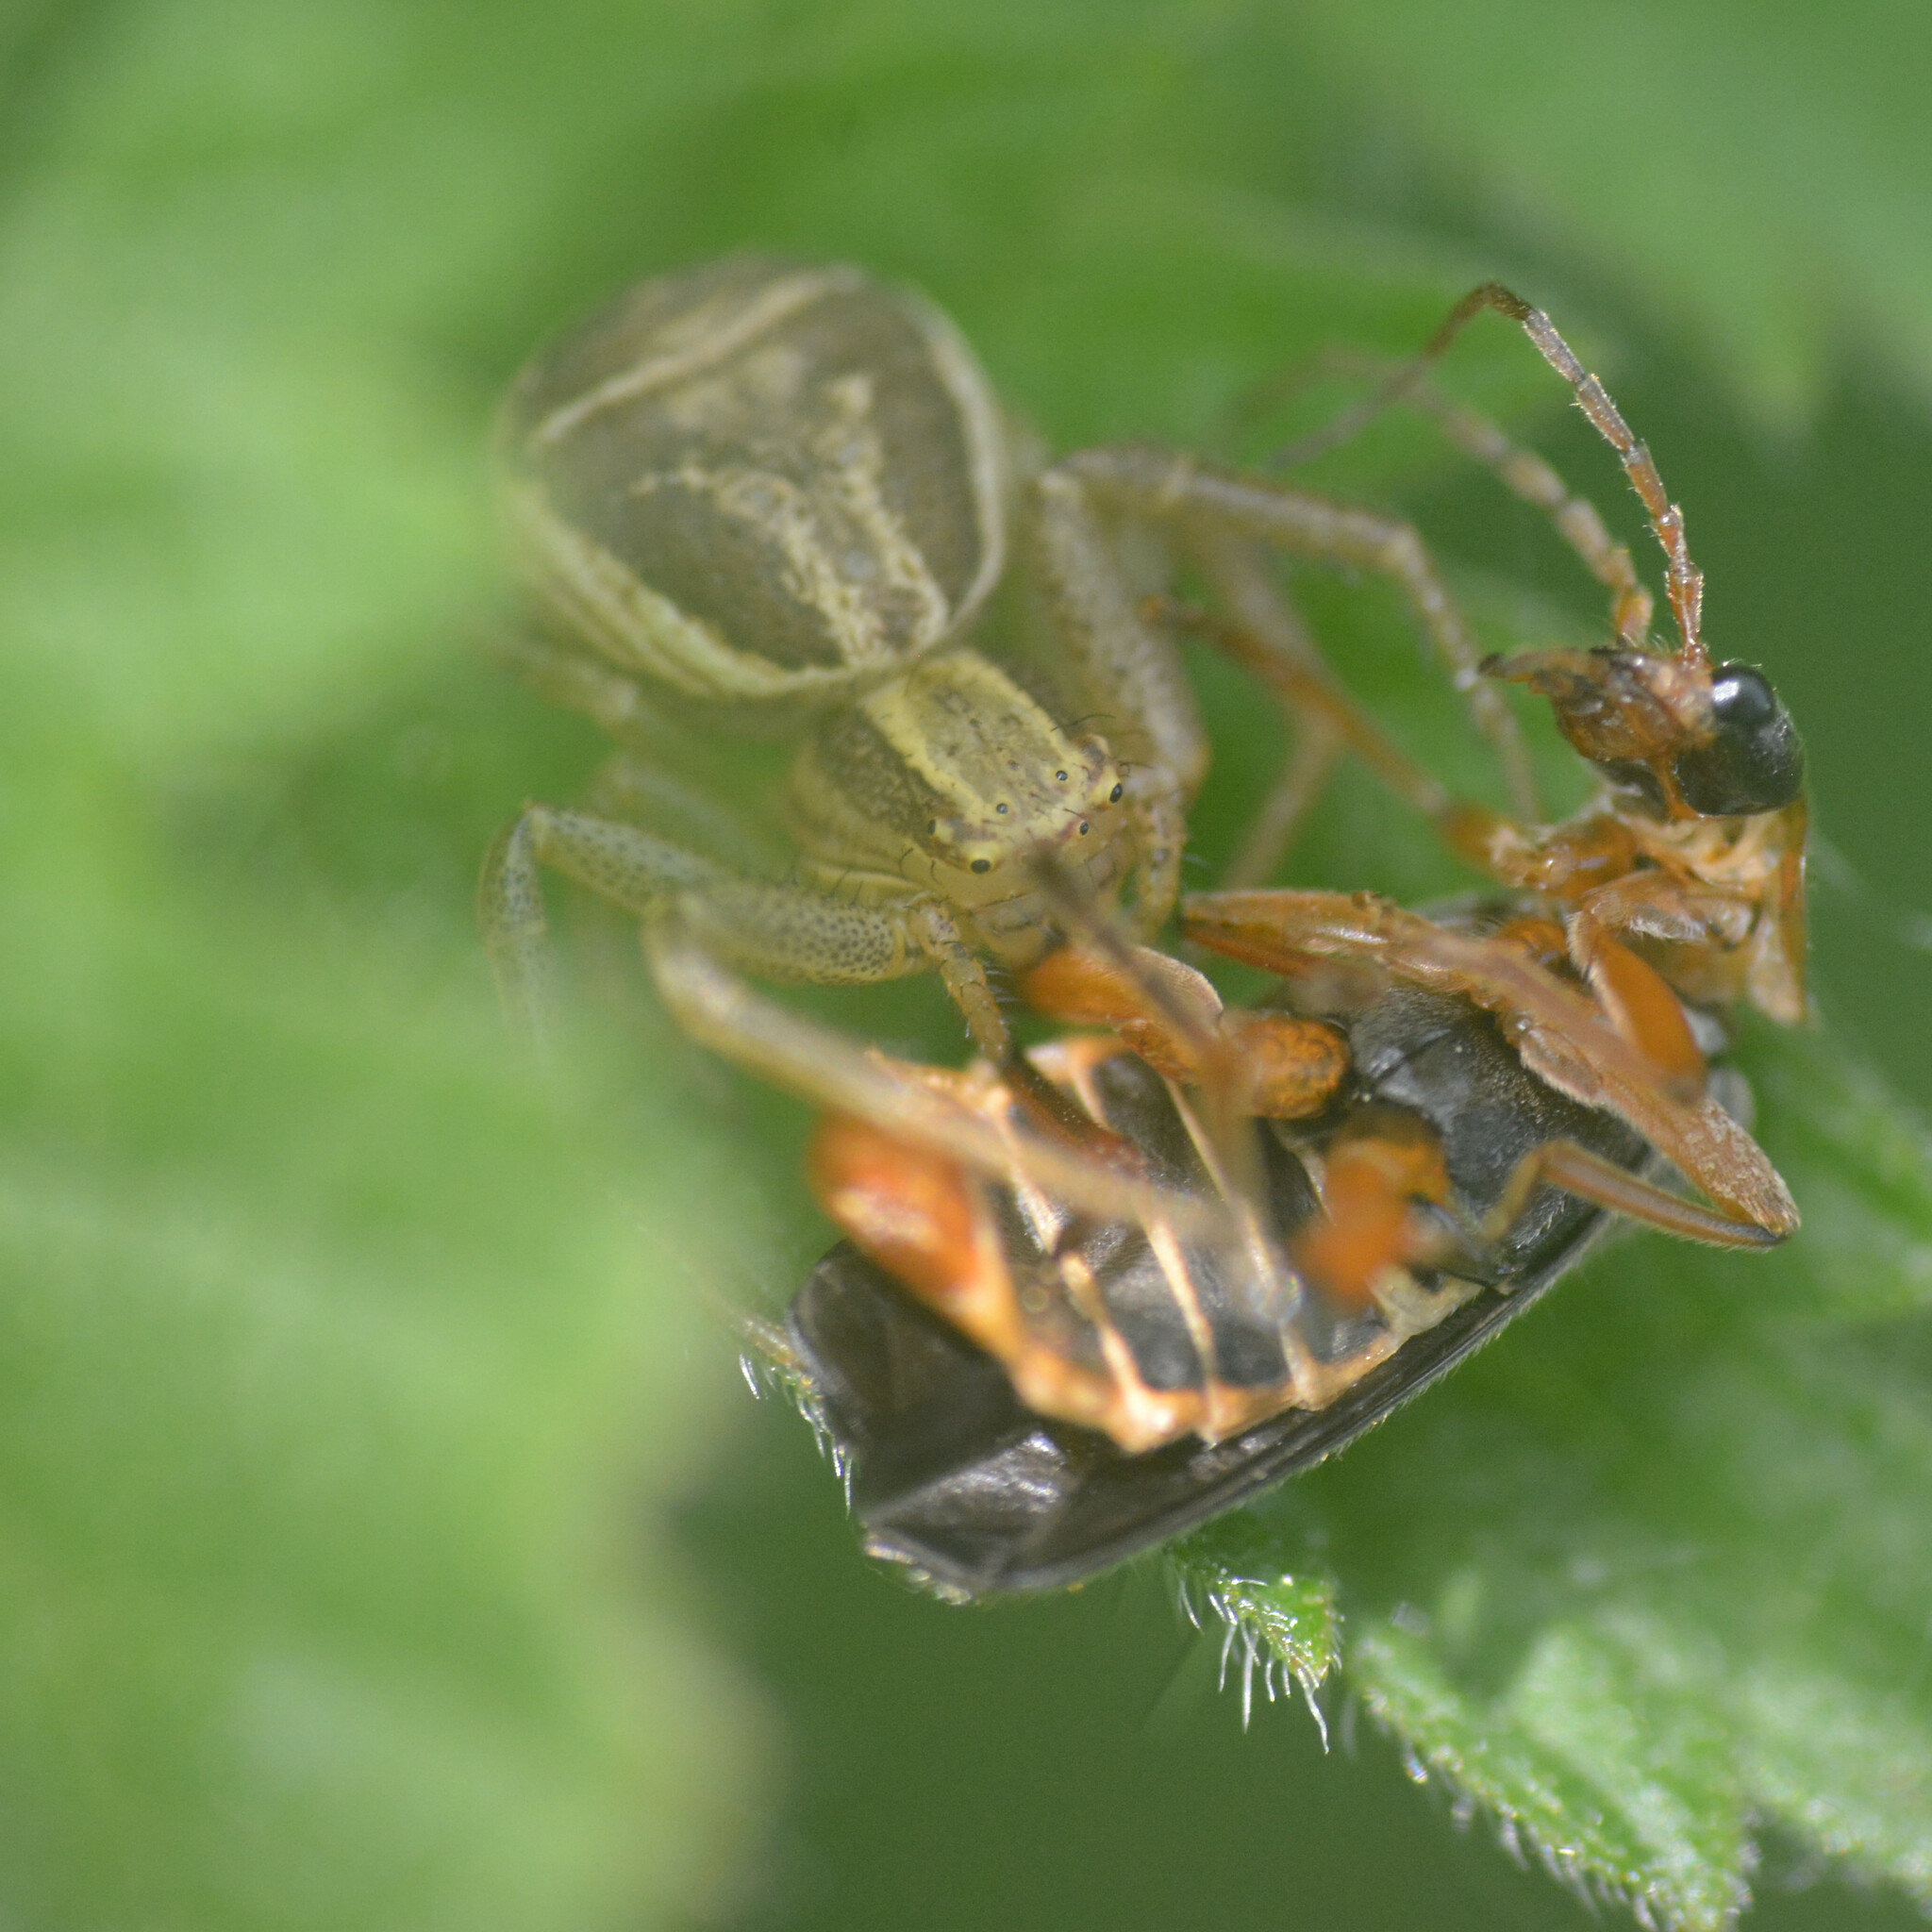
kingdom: Animalia
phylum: Arthropoda
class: Arachnida
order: Araneae
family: Thomisidae
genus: Xysticus
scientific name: Xysticus ulmi
